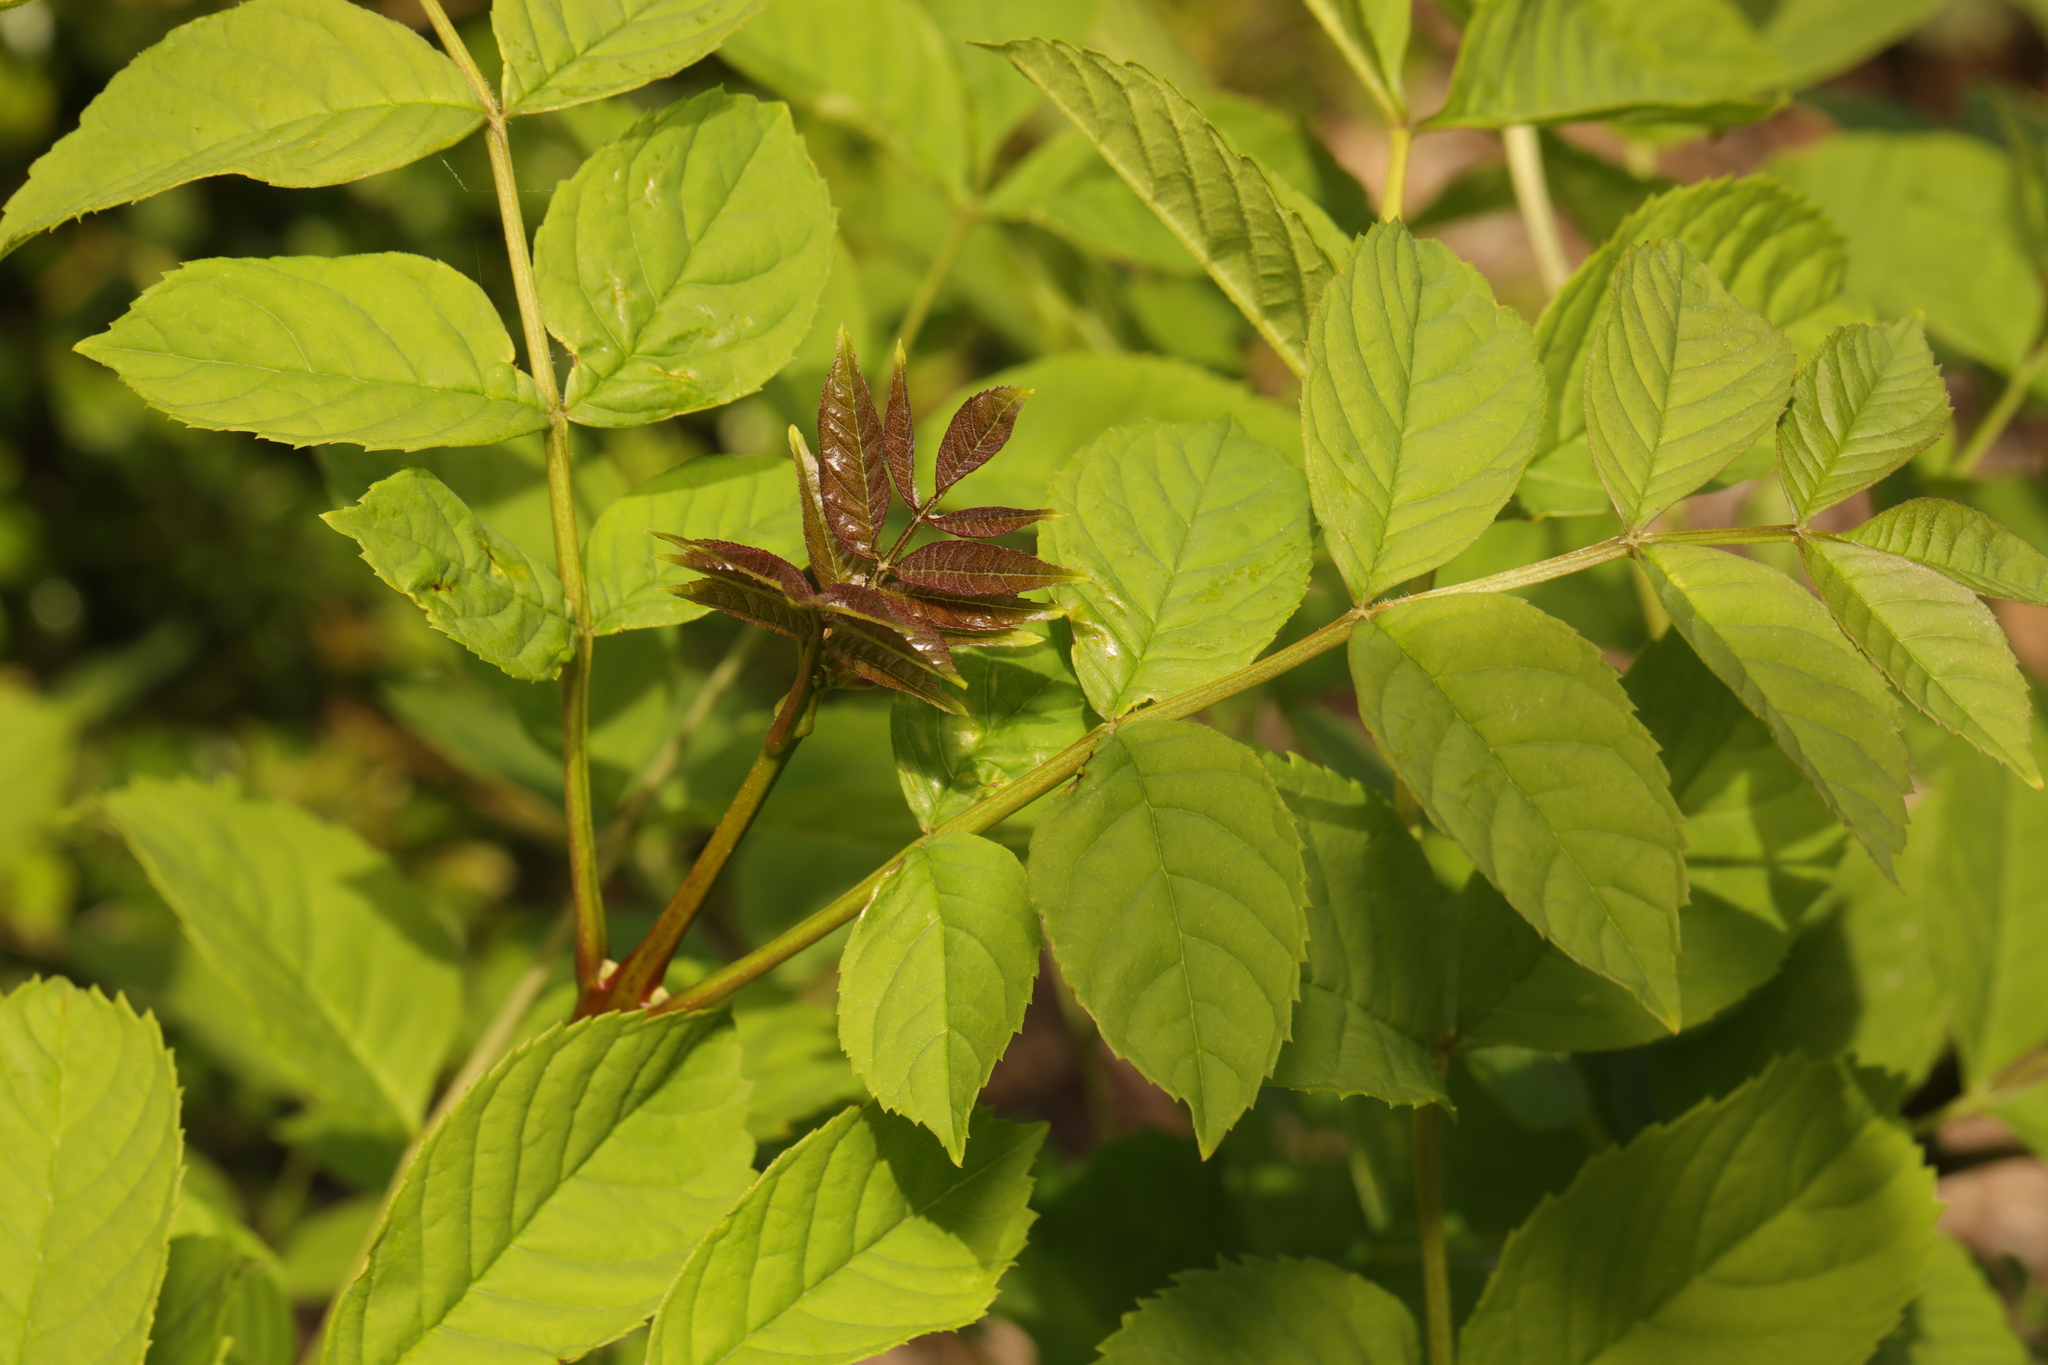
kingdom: Plantae
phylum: Tracheophyta
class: Magnoliopsida
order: Lamiales
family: Oleaceae
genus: Fraxinus
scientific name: Fraxinus excelsior
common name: European ash
